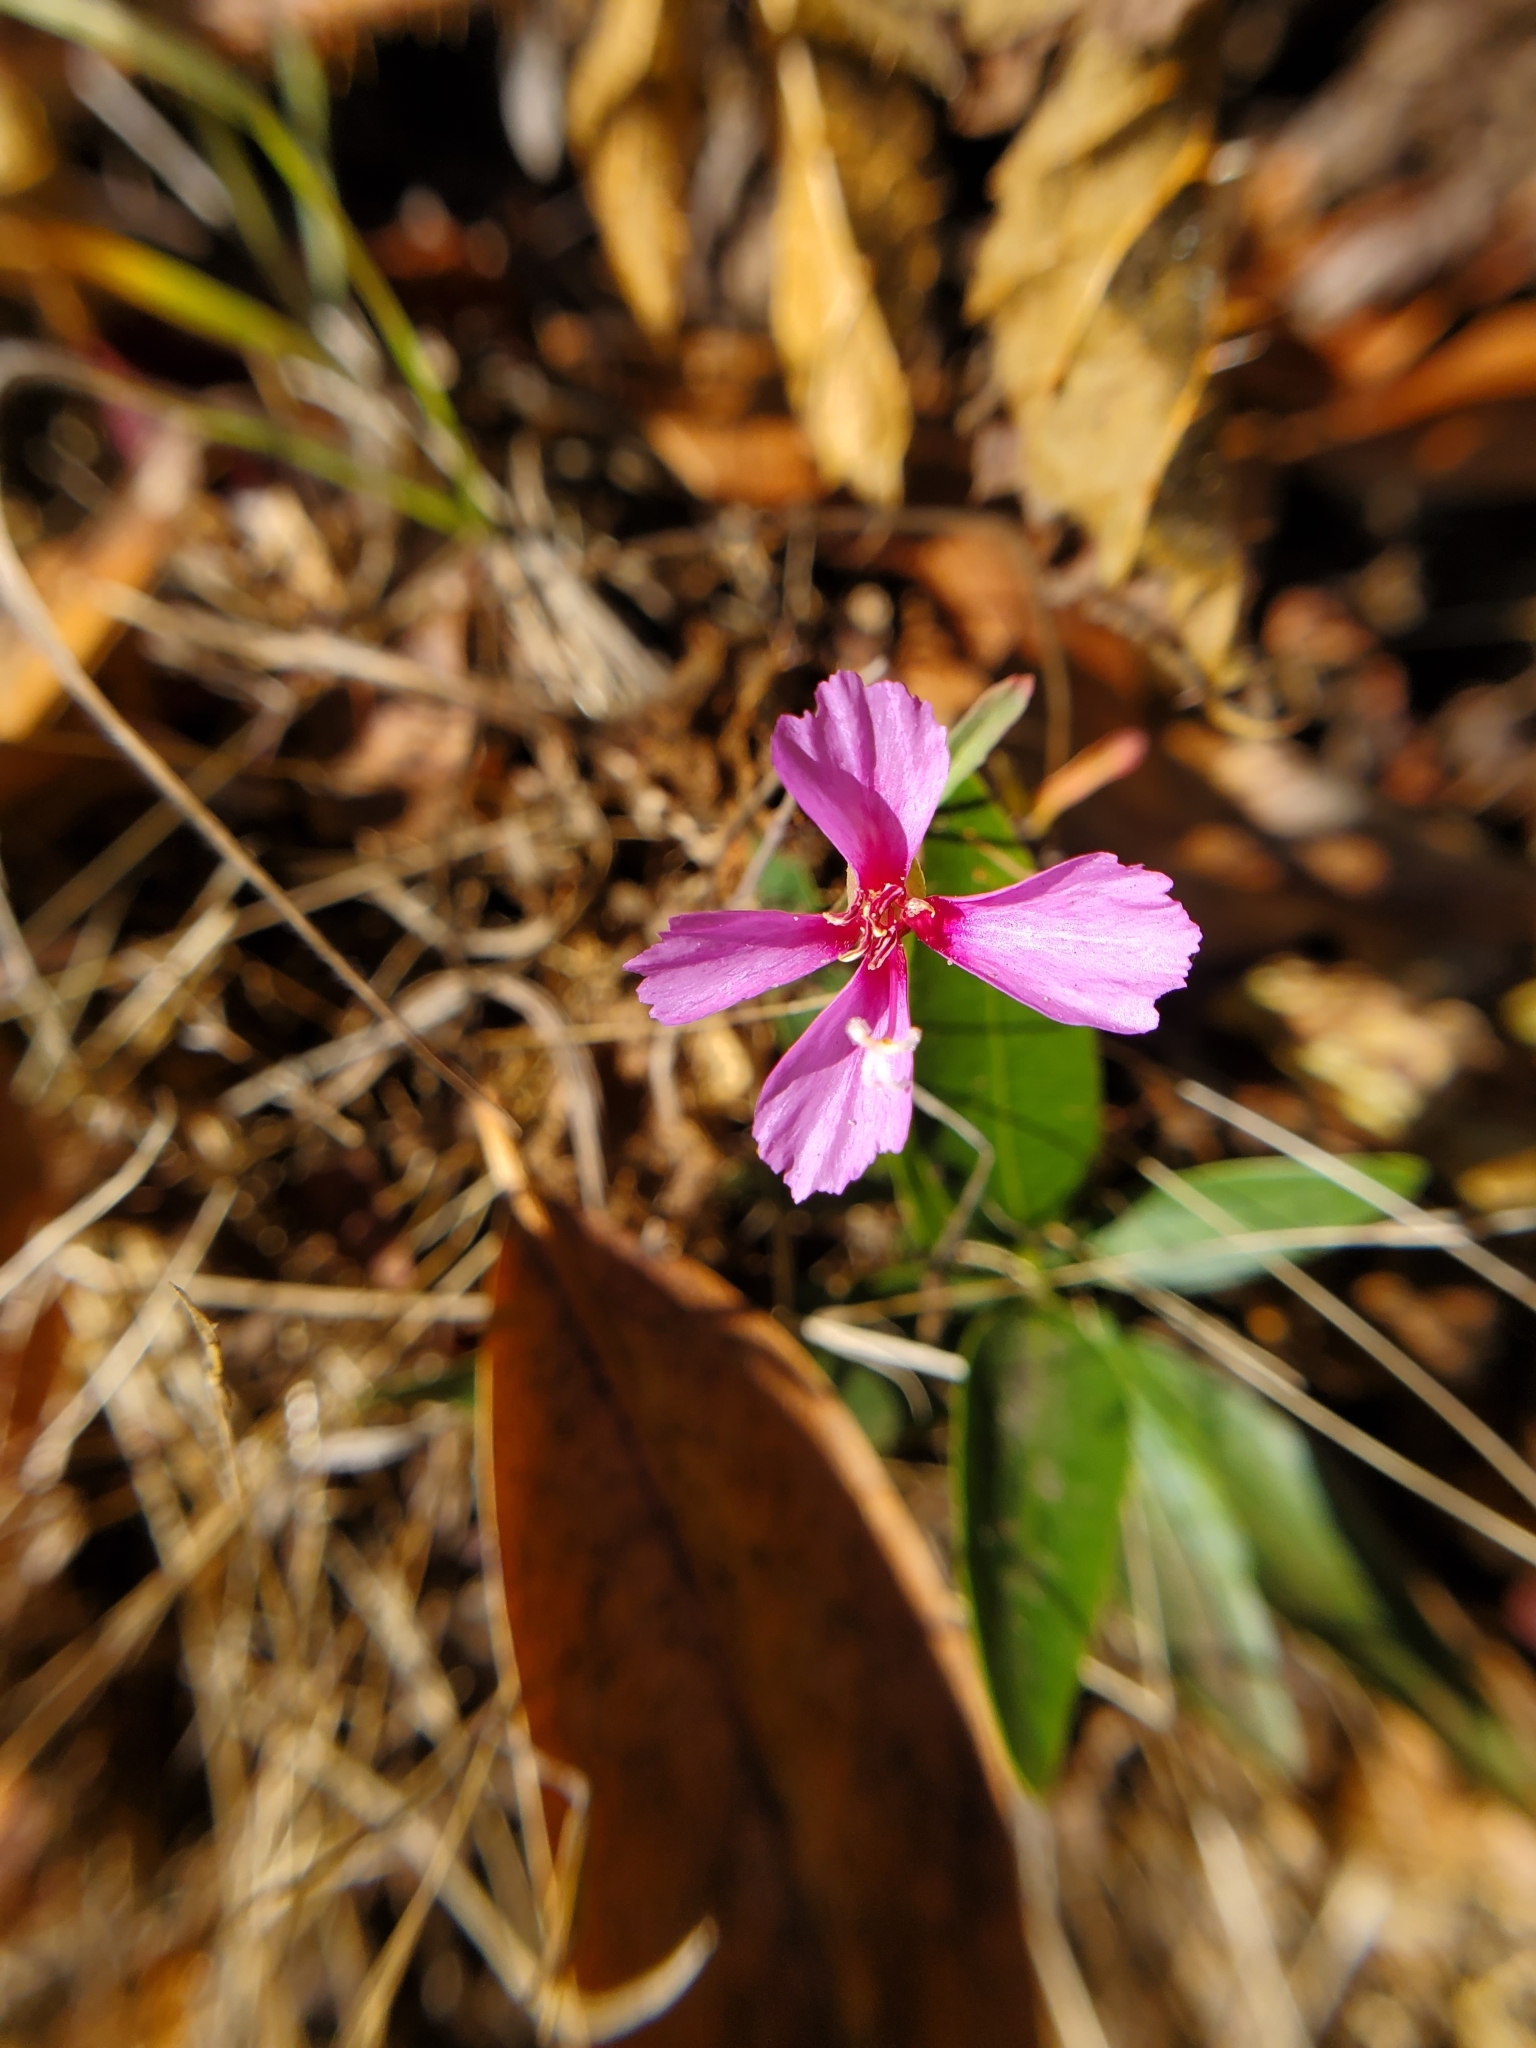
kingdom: Plantae
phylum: Tracheophyta
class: Magnoliopsida
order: Myrtales
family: Onagraceae
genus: Clarkia
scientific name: Clarkia rubicunda
